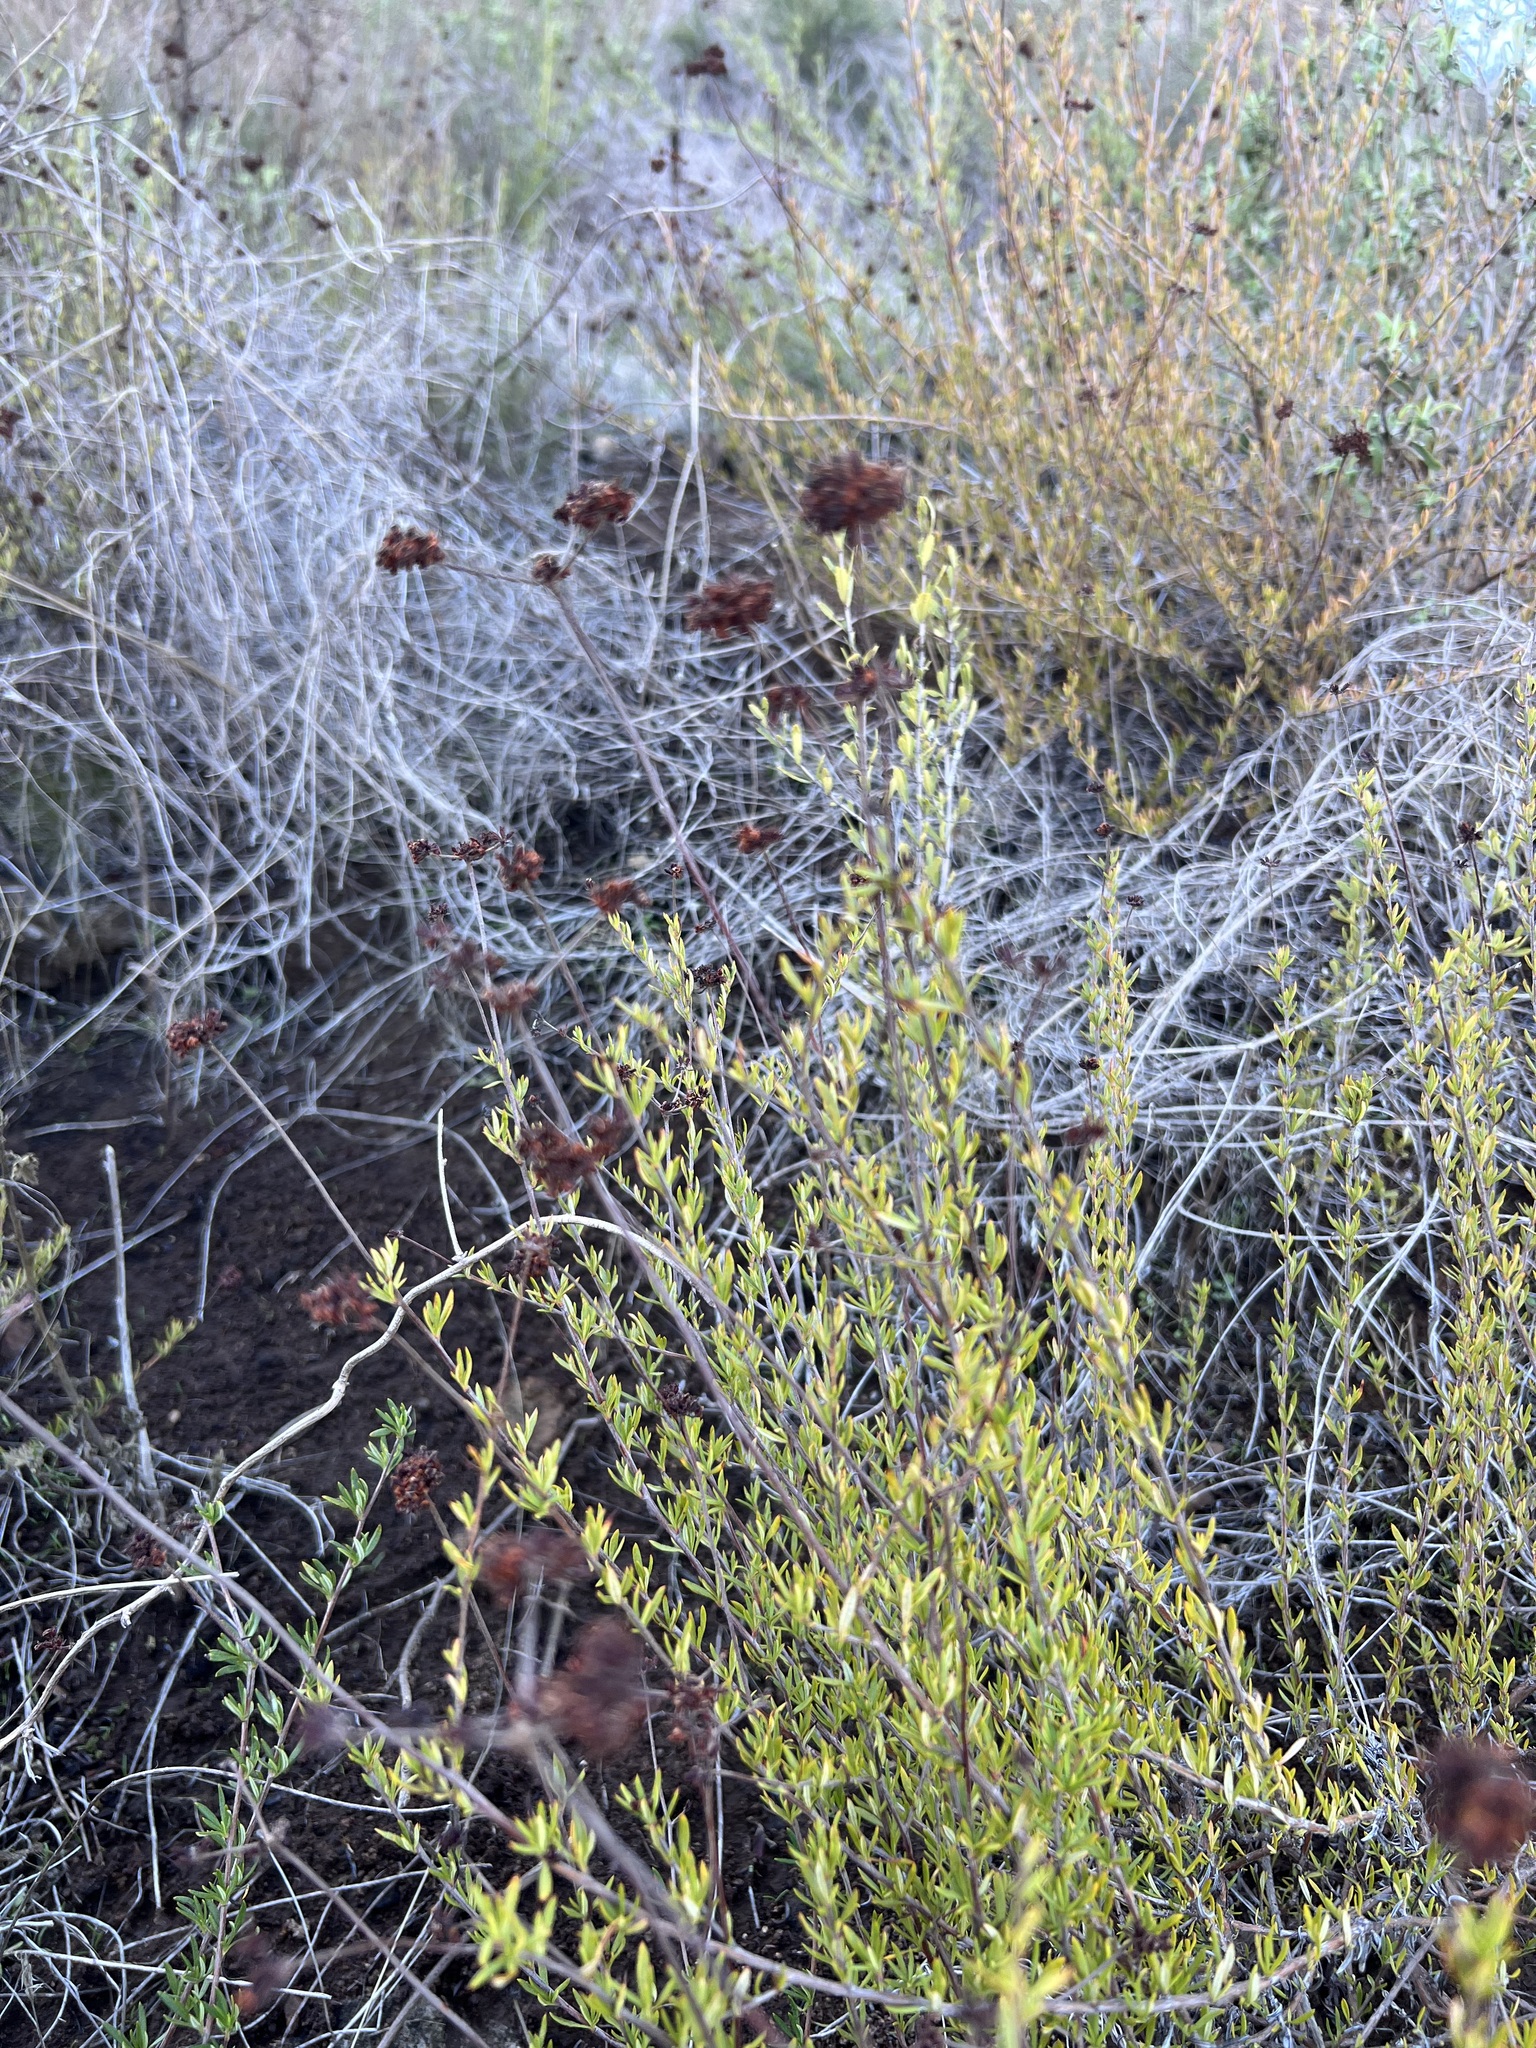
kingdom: Plantae
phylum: Tracheophyta
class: Magnoliopsida
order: Caryophyllales
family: Polygonaceae
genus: Eriogonum
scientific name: Eriogonum fasciculatum
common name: California wild buckwheat
